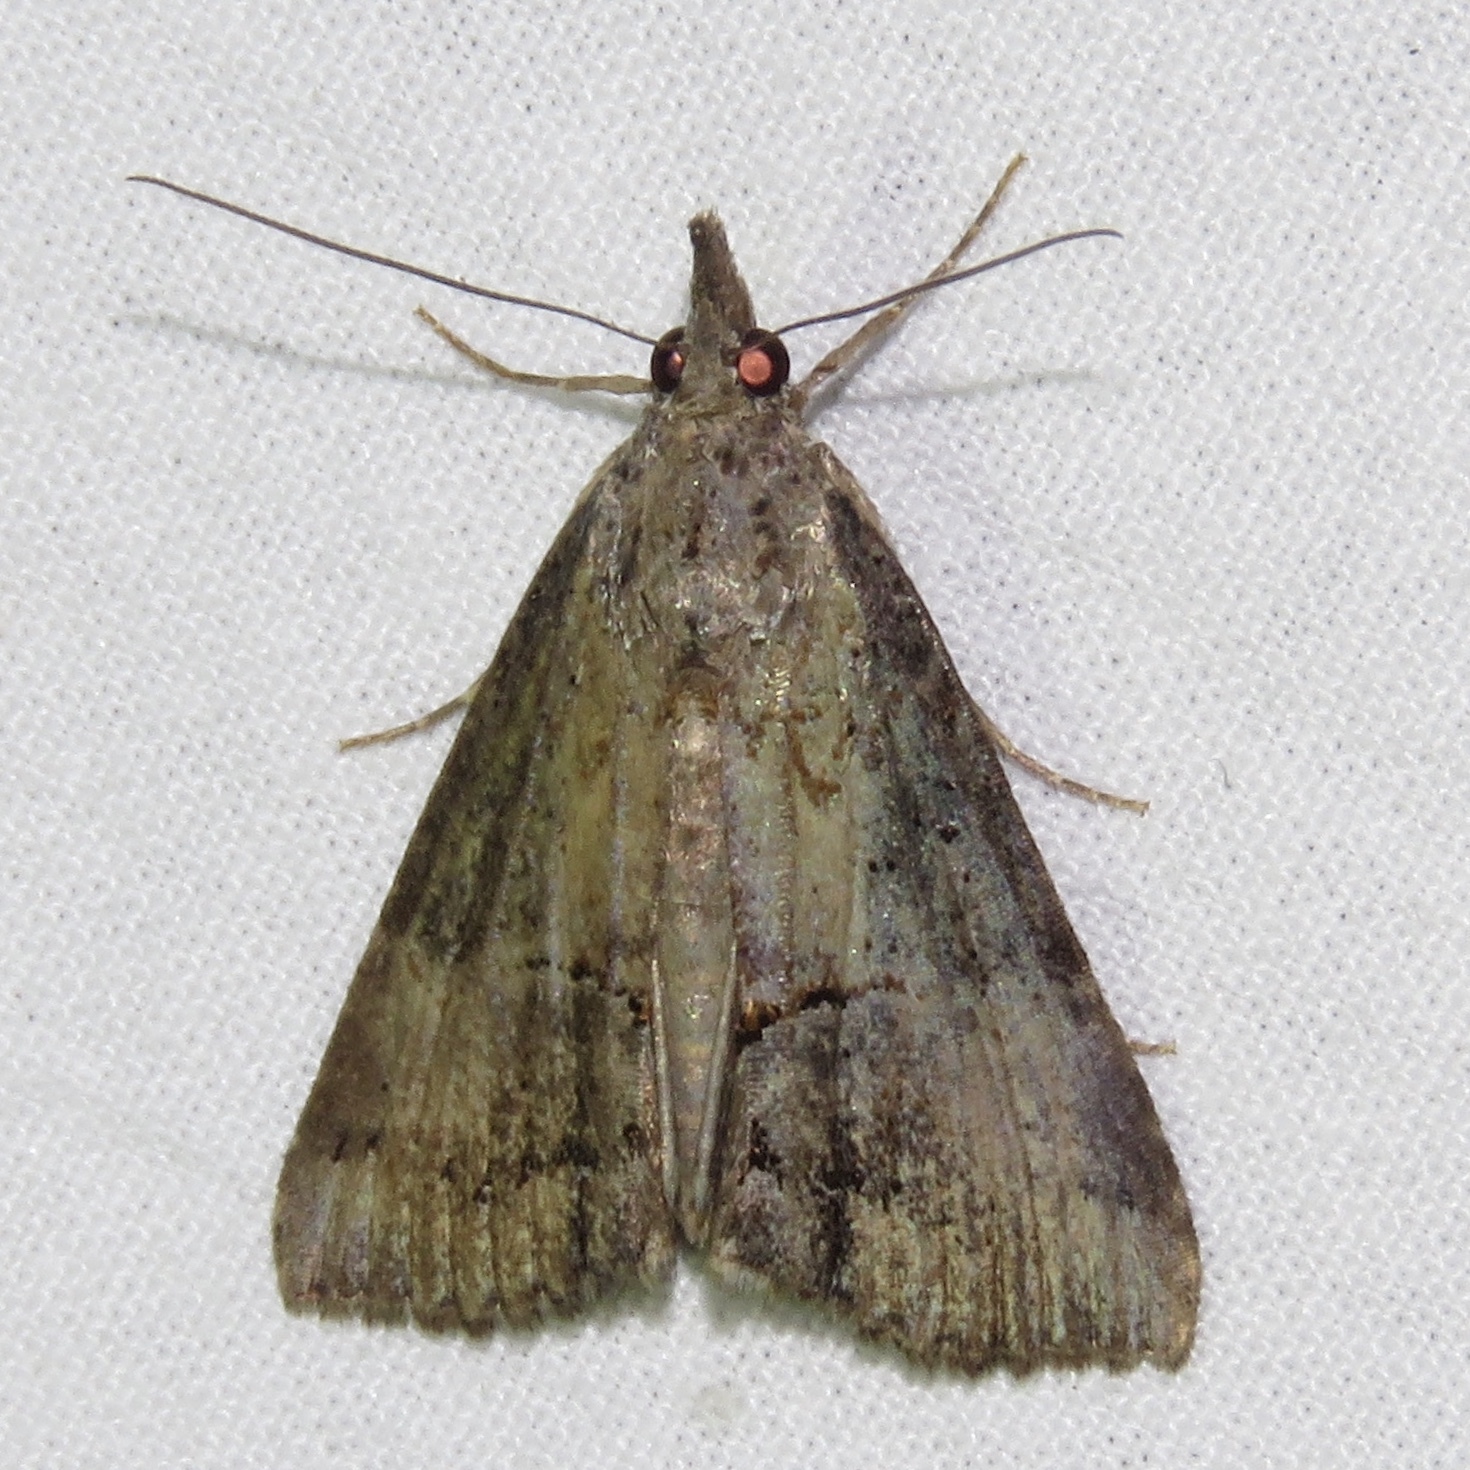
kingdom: Animalia
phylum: Arthropoda
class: Insecta
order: Lepidoptera
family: Erebidae
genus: Hypena
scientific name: Hypena scabra
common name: Green cloverworm
